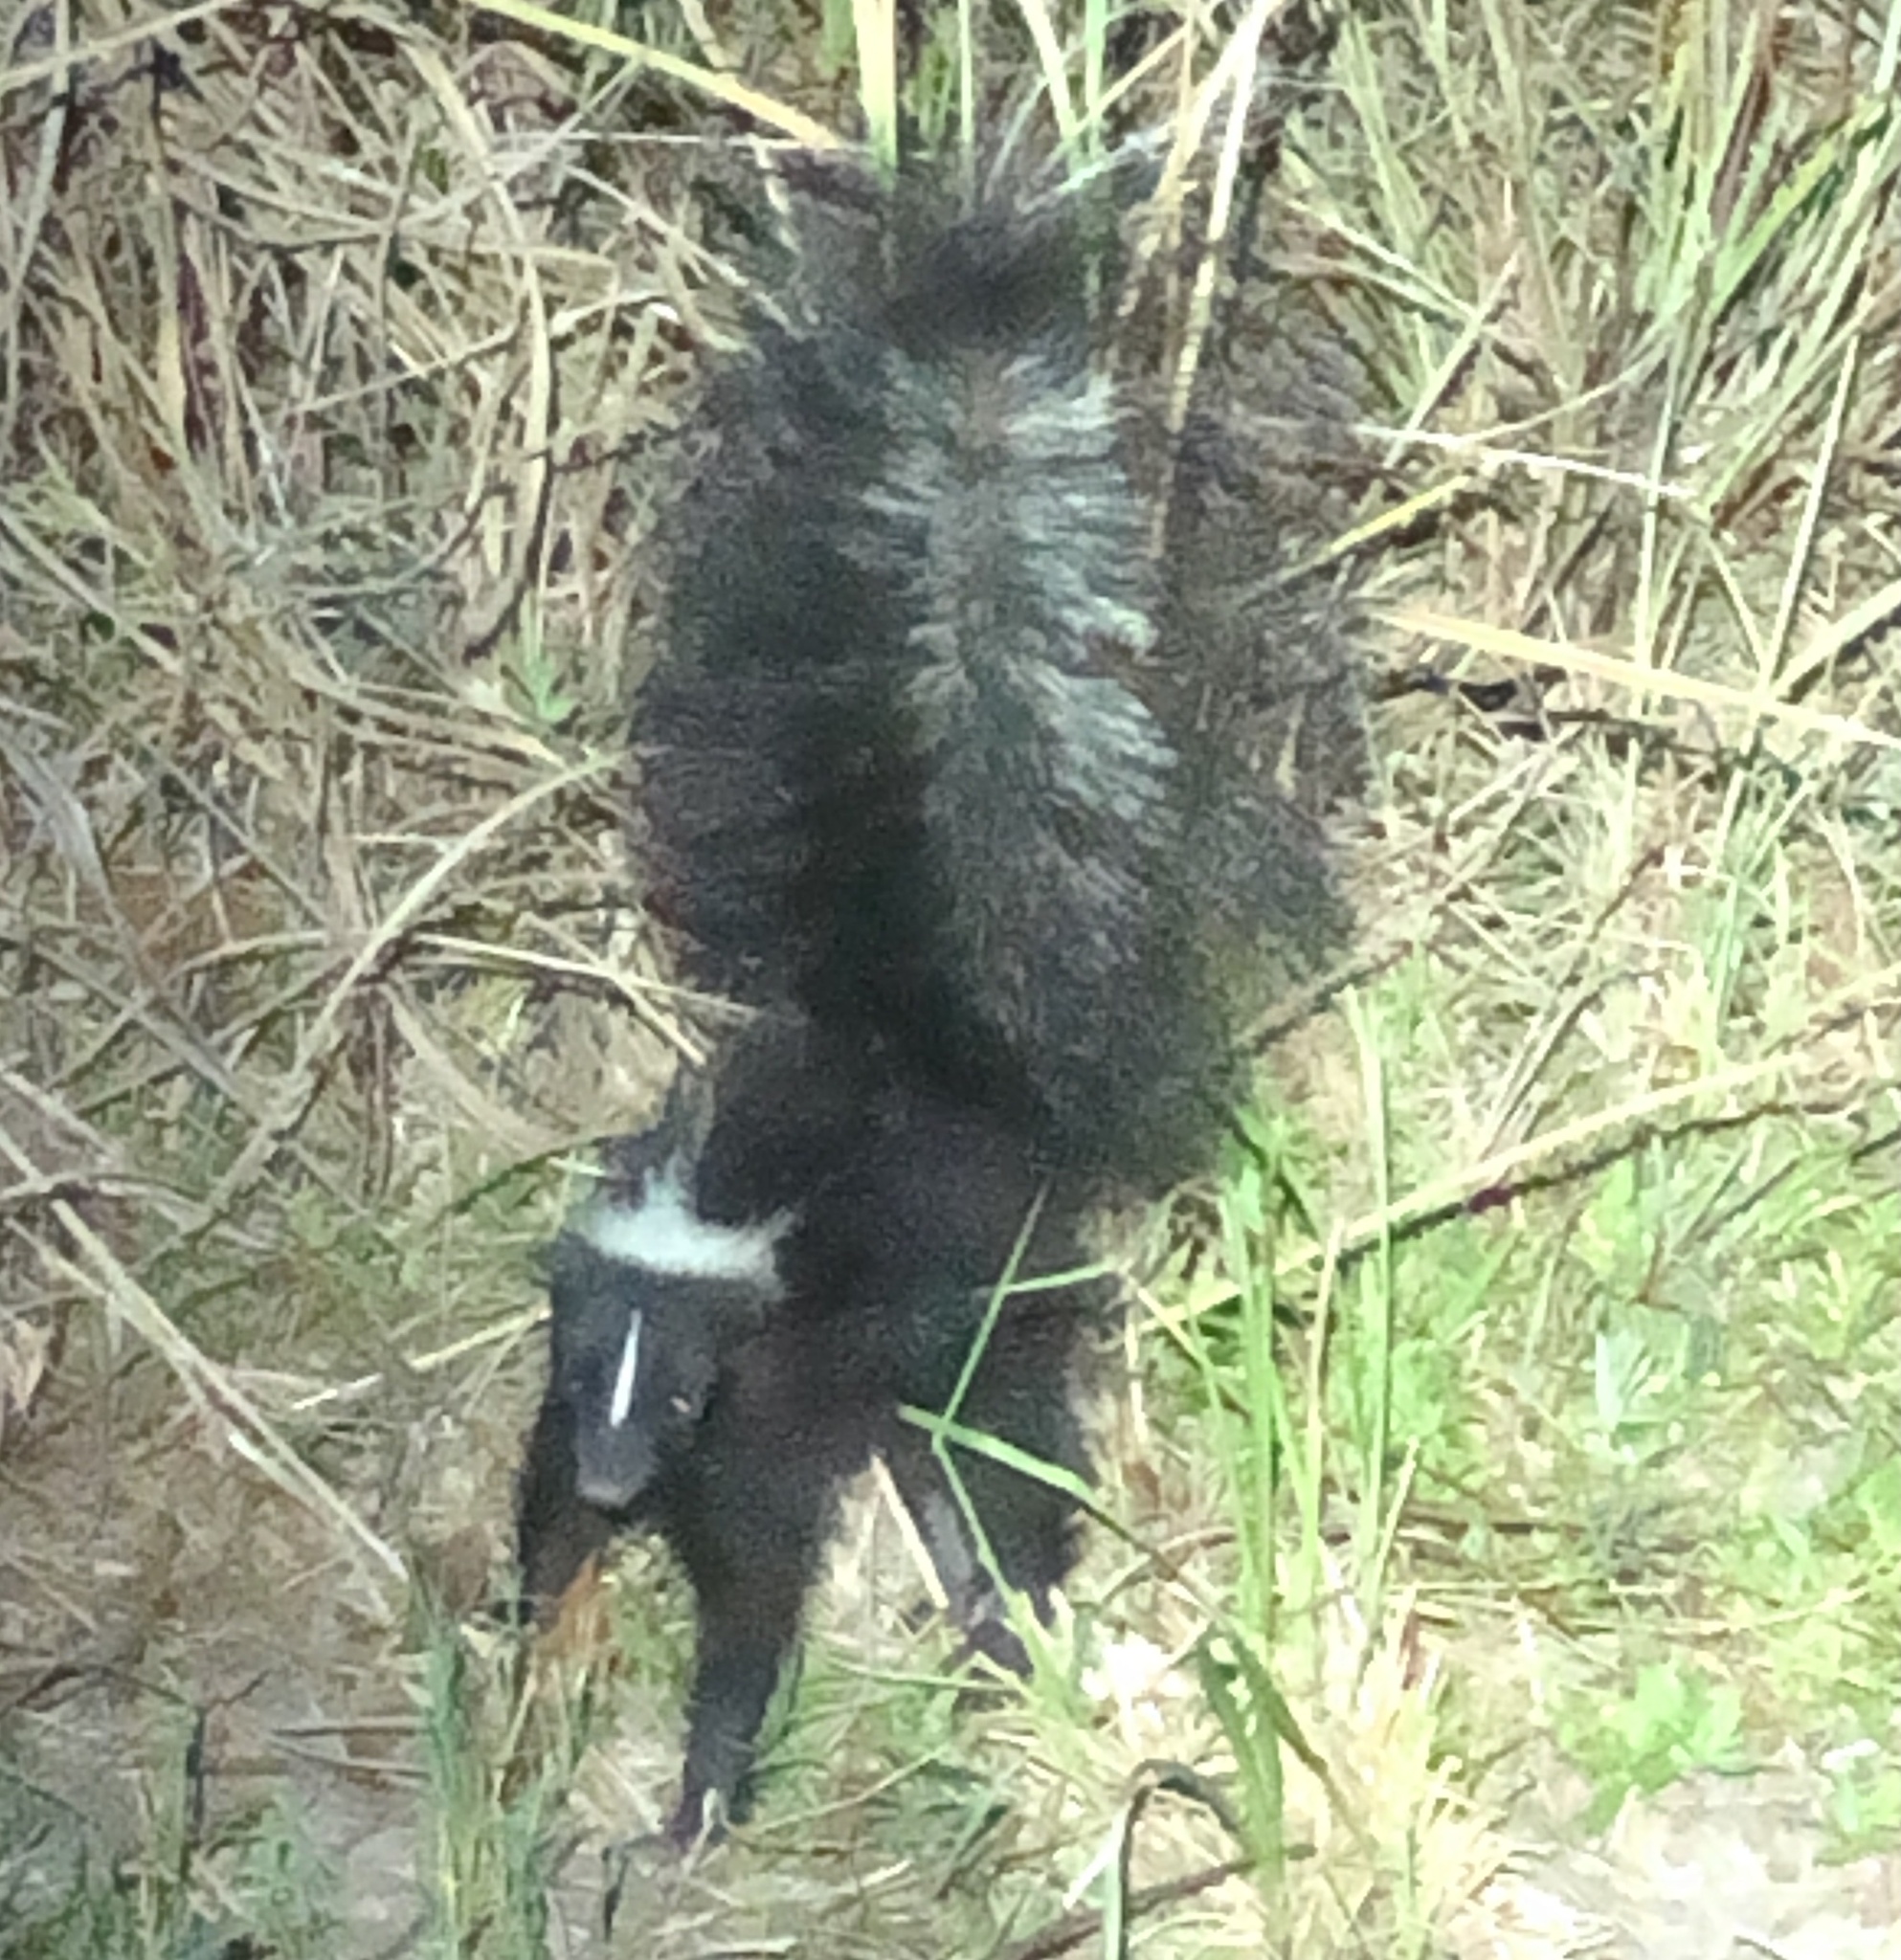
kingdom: Animalia
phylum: Chordata
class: Mammalia
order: Carnivora
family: Mephitidae
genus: Mephitis
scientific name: Mephitis mephitis
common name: Striped skunk
